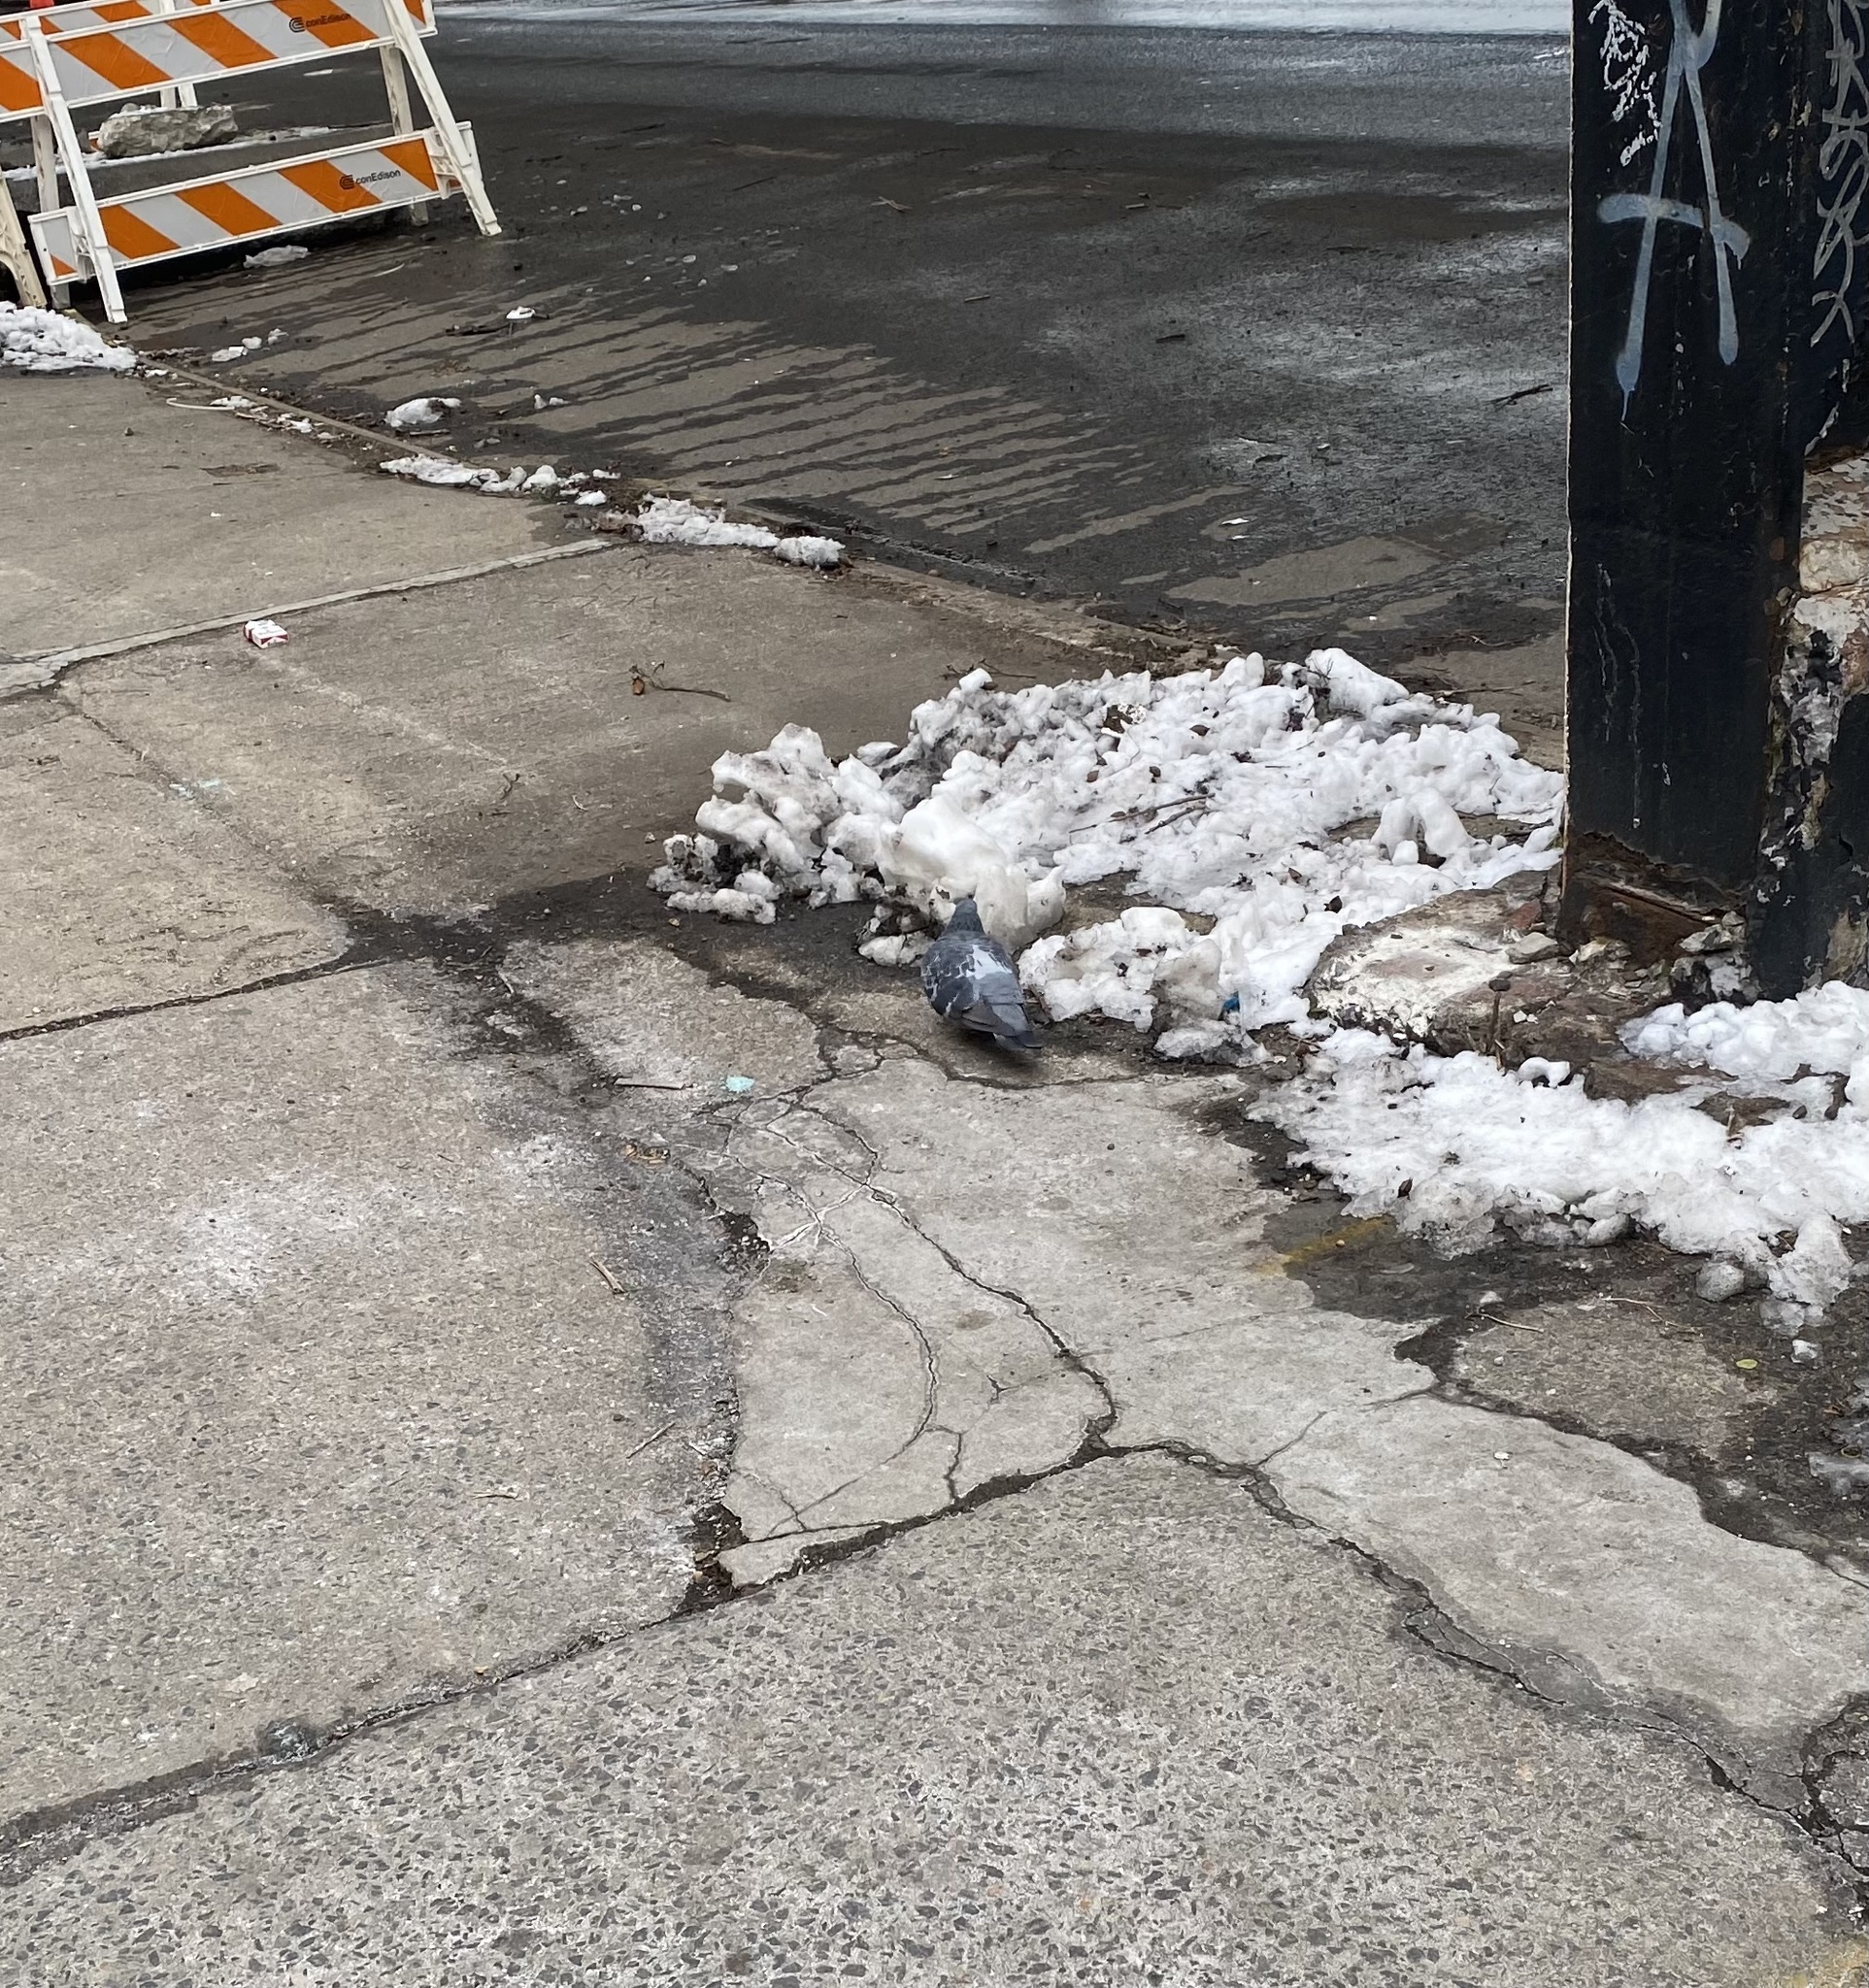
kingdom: Animalia
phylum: Chordata
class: Aves
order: Columbiformes
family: Columbidae
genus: Columba
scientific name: Columba livia
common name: Rock pigeon
